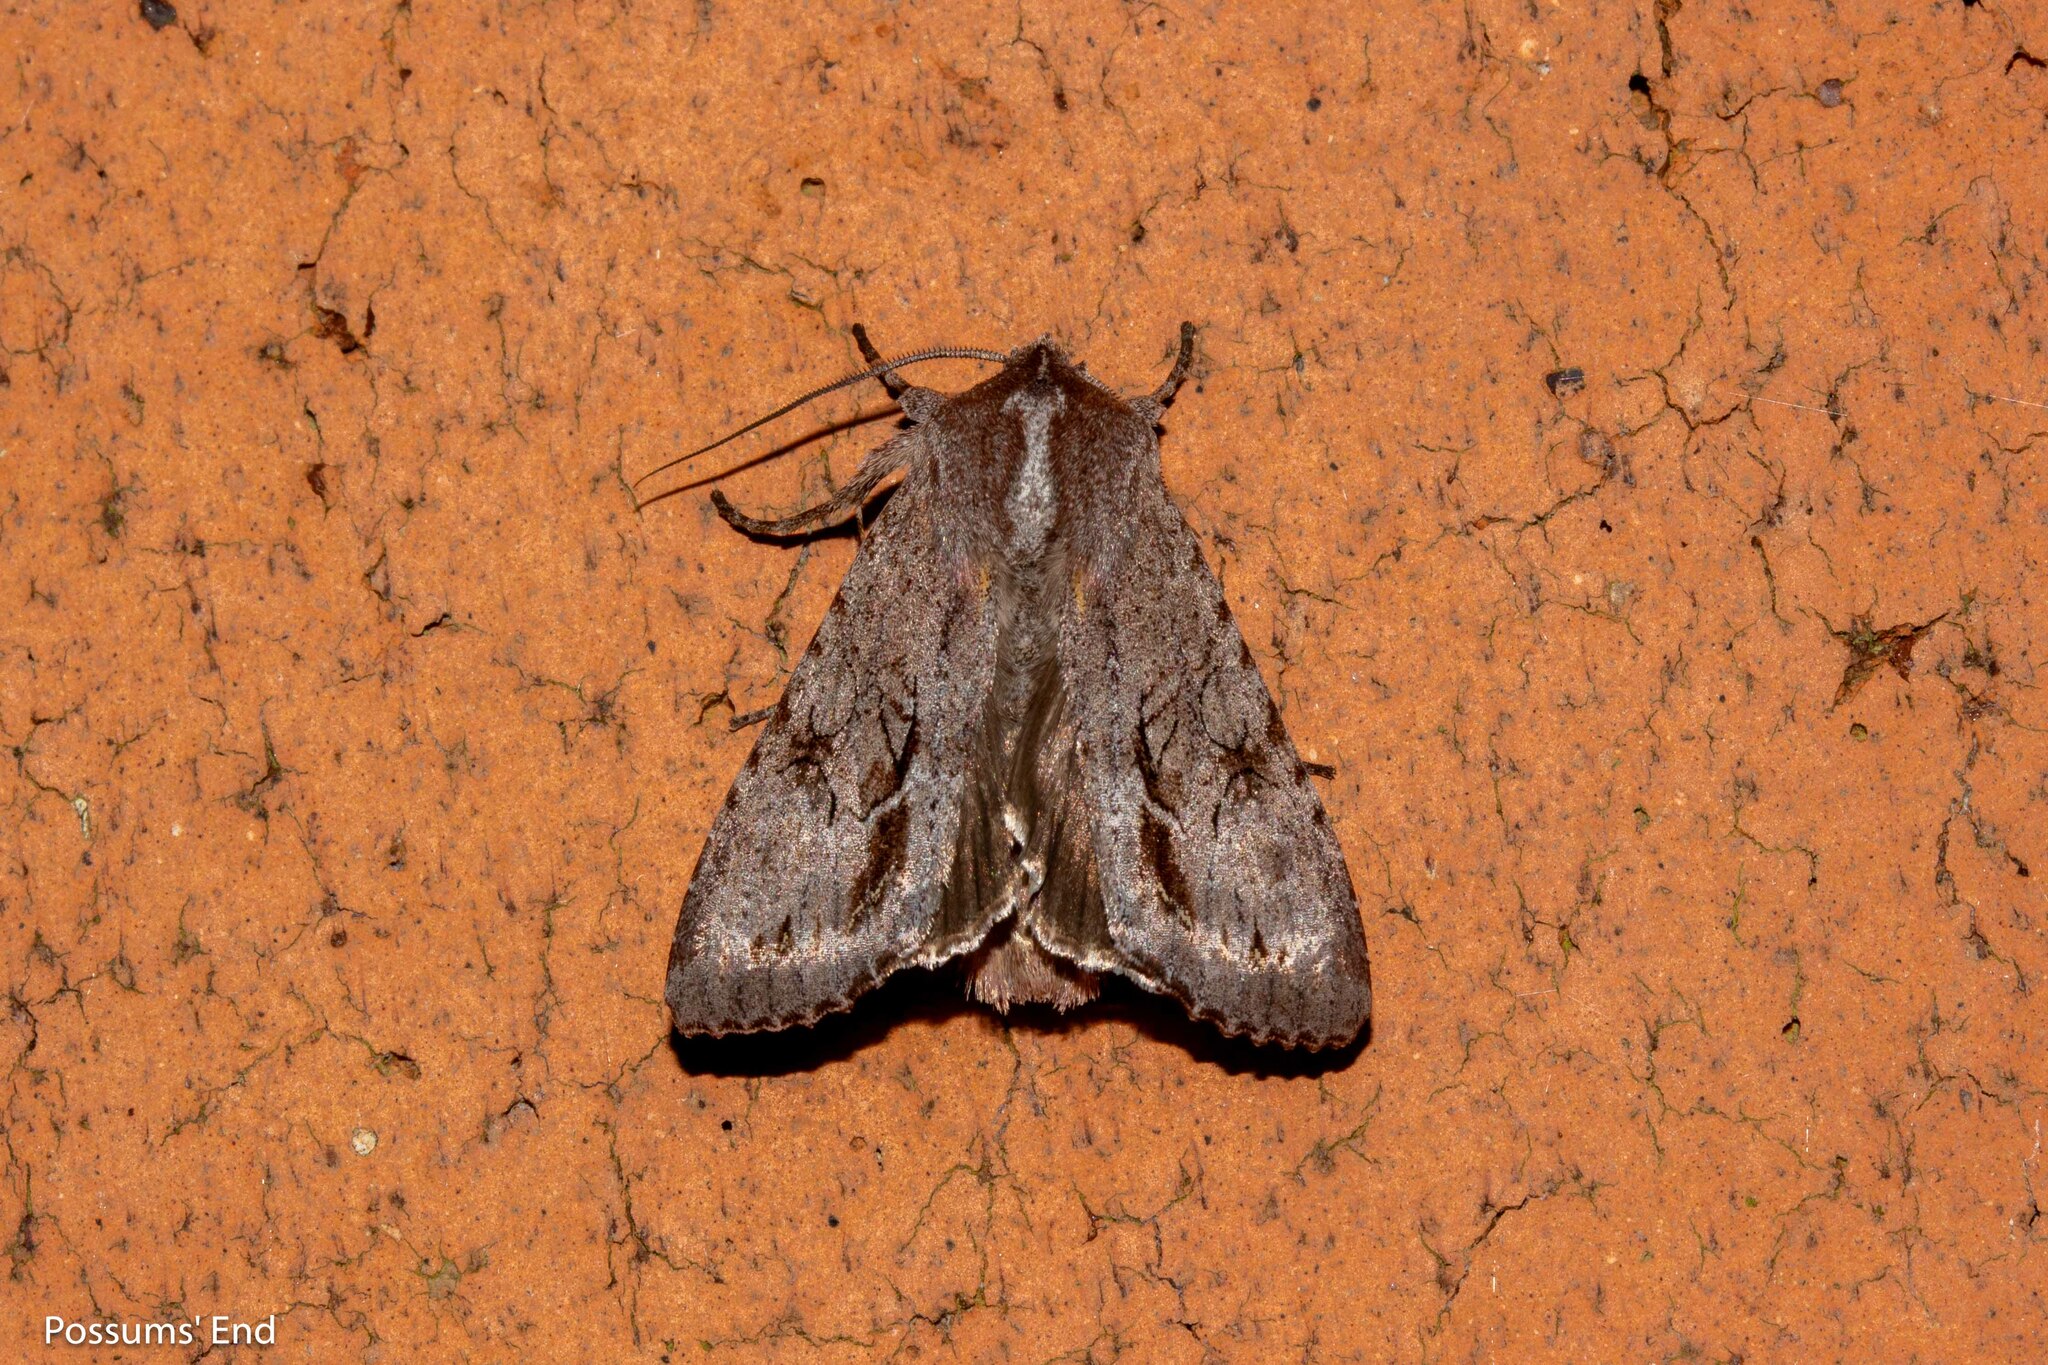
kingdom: Animalia
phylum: Arthropoda
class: Insecta
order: Lepidoptera
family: Noctuidae
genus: Ichneutica
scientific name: Ichneutica
